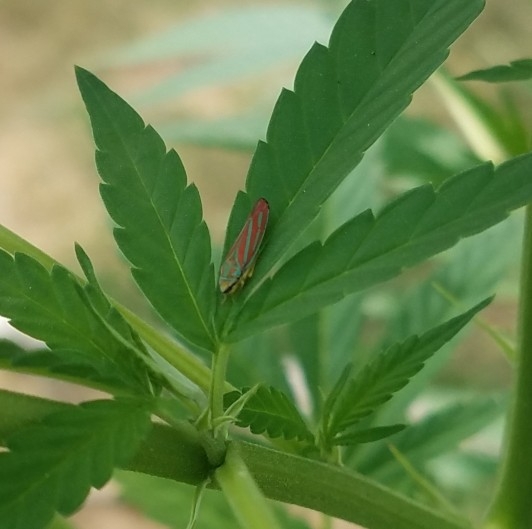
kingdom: Animalia
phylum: Arthropoda
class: Insecta
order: Hemiptera
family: Cicadellidae
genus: Graphocephala
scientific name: Graphocephala coccinea
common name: Candy-striped leafhopper
